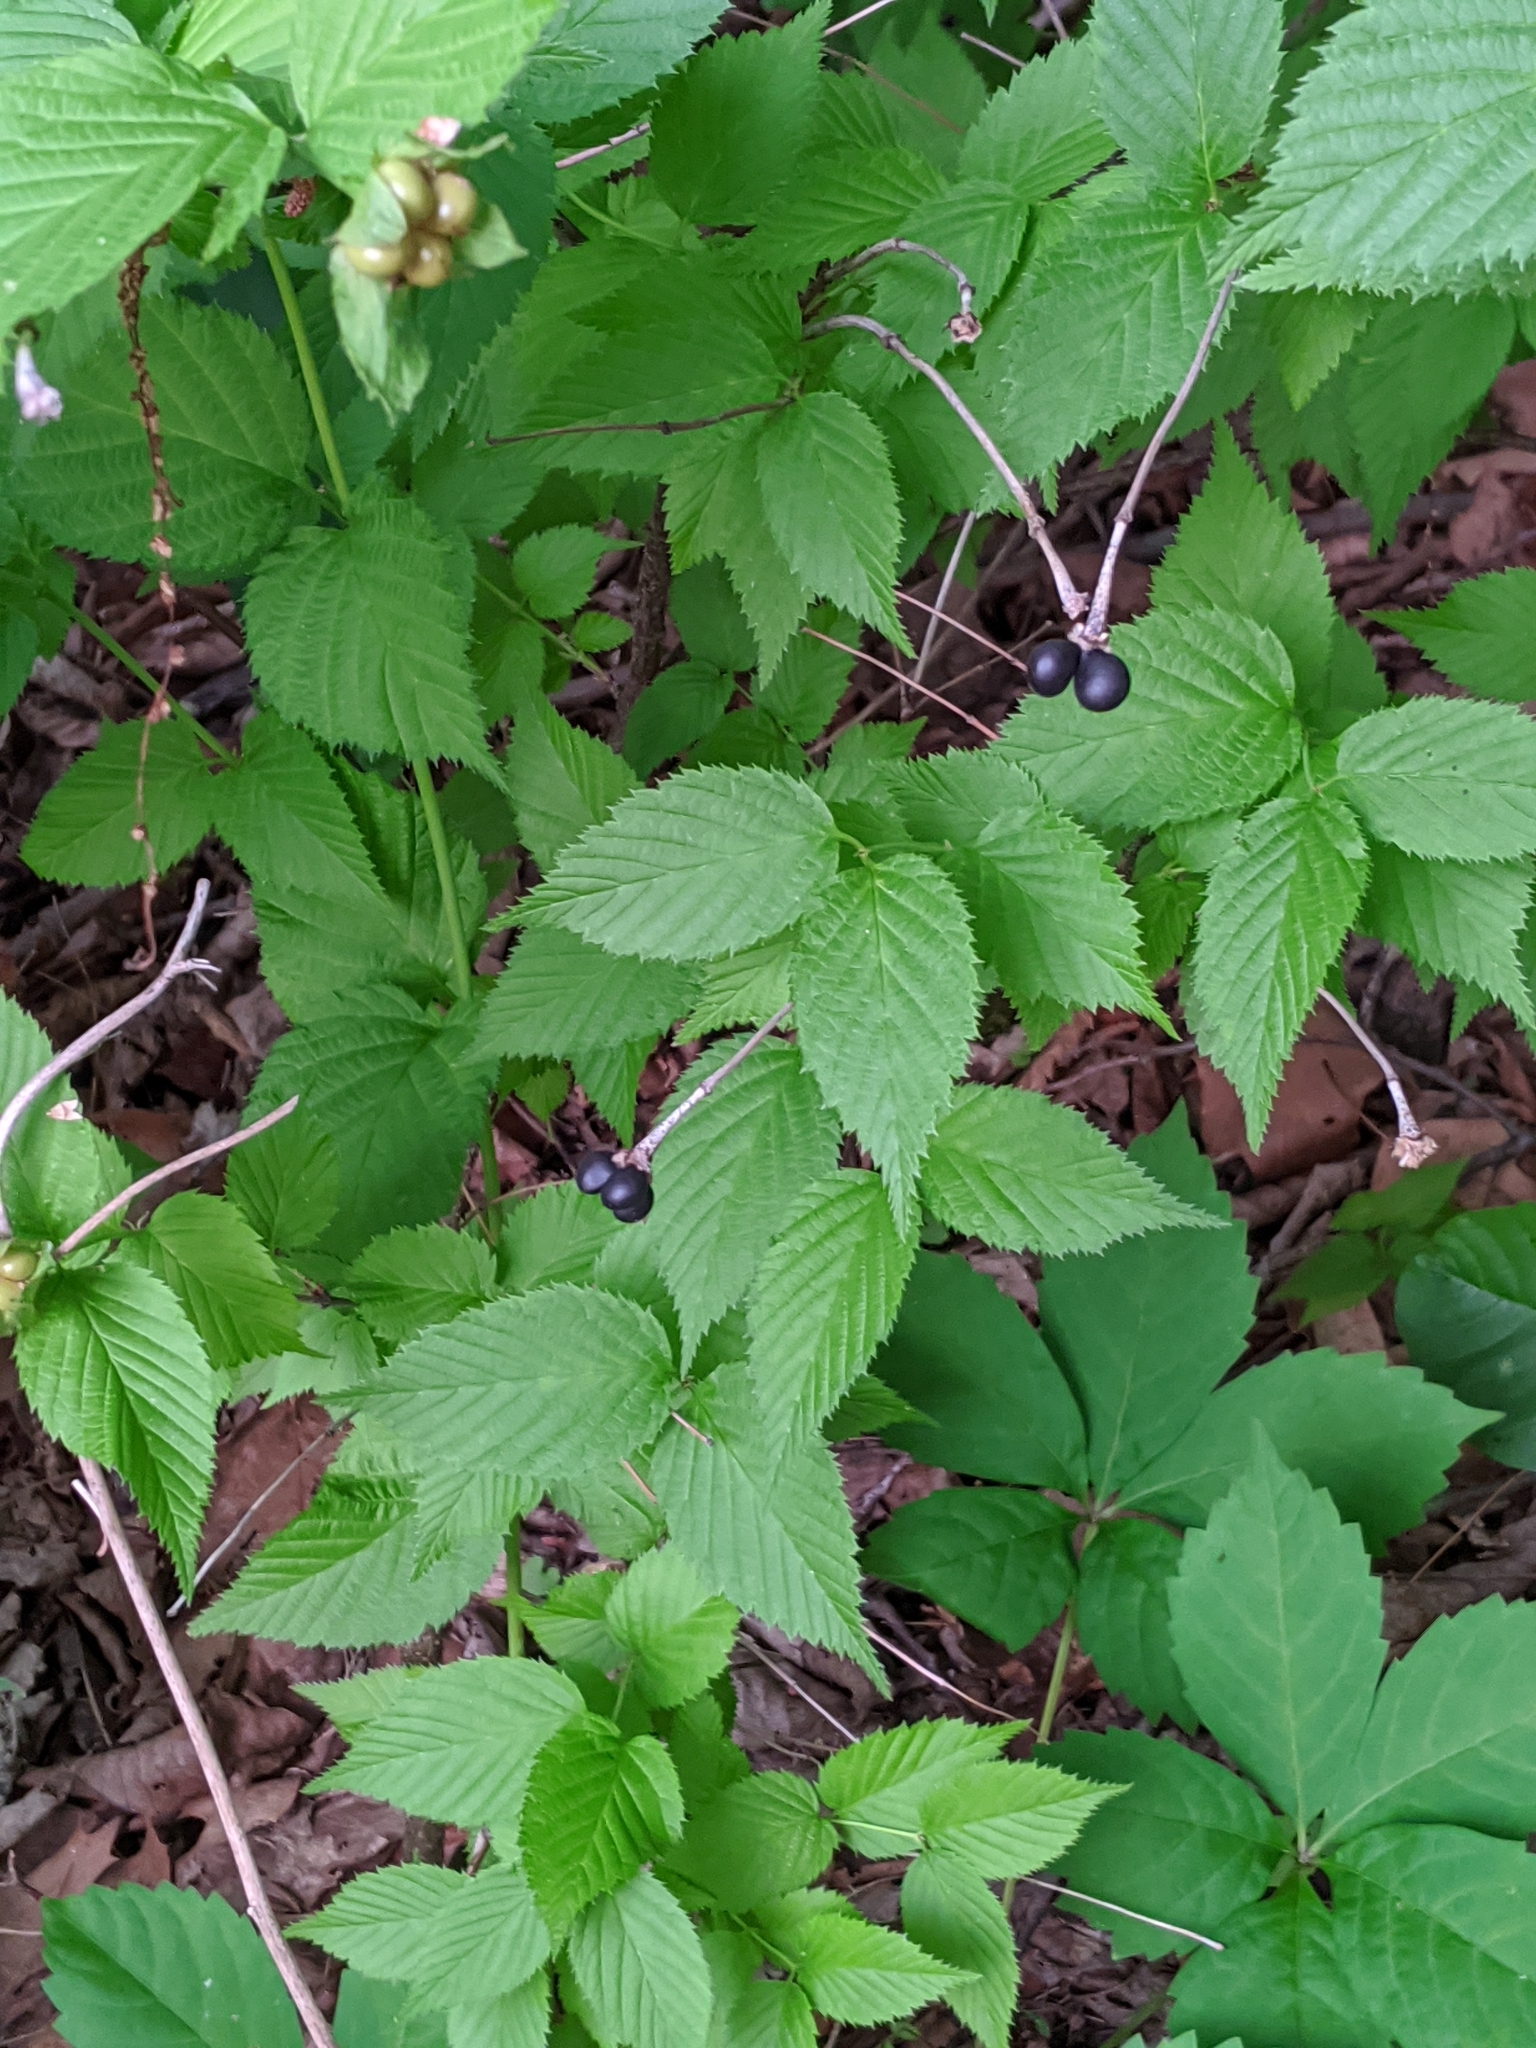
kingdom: Plantae
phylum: Tracheophyta
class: Magnoliopsida
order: Rosales
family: Rosaceae
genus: Rhodotypos
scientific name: Rhodotypos scandens
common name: Jetbead
